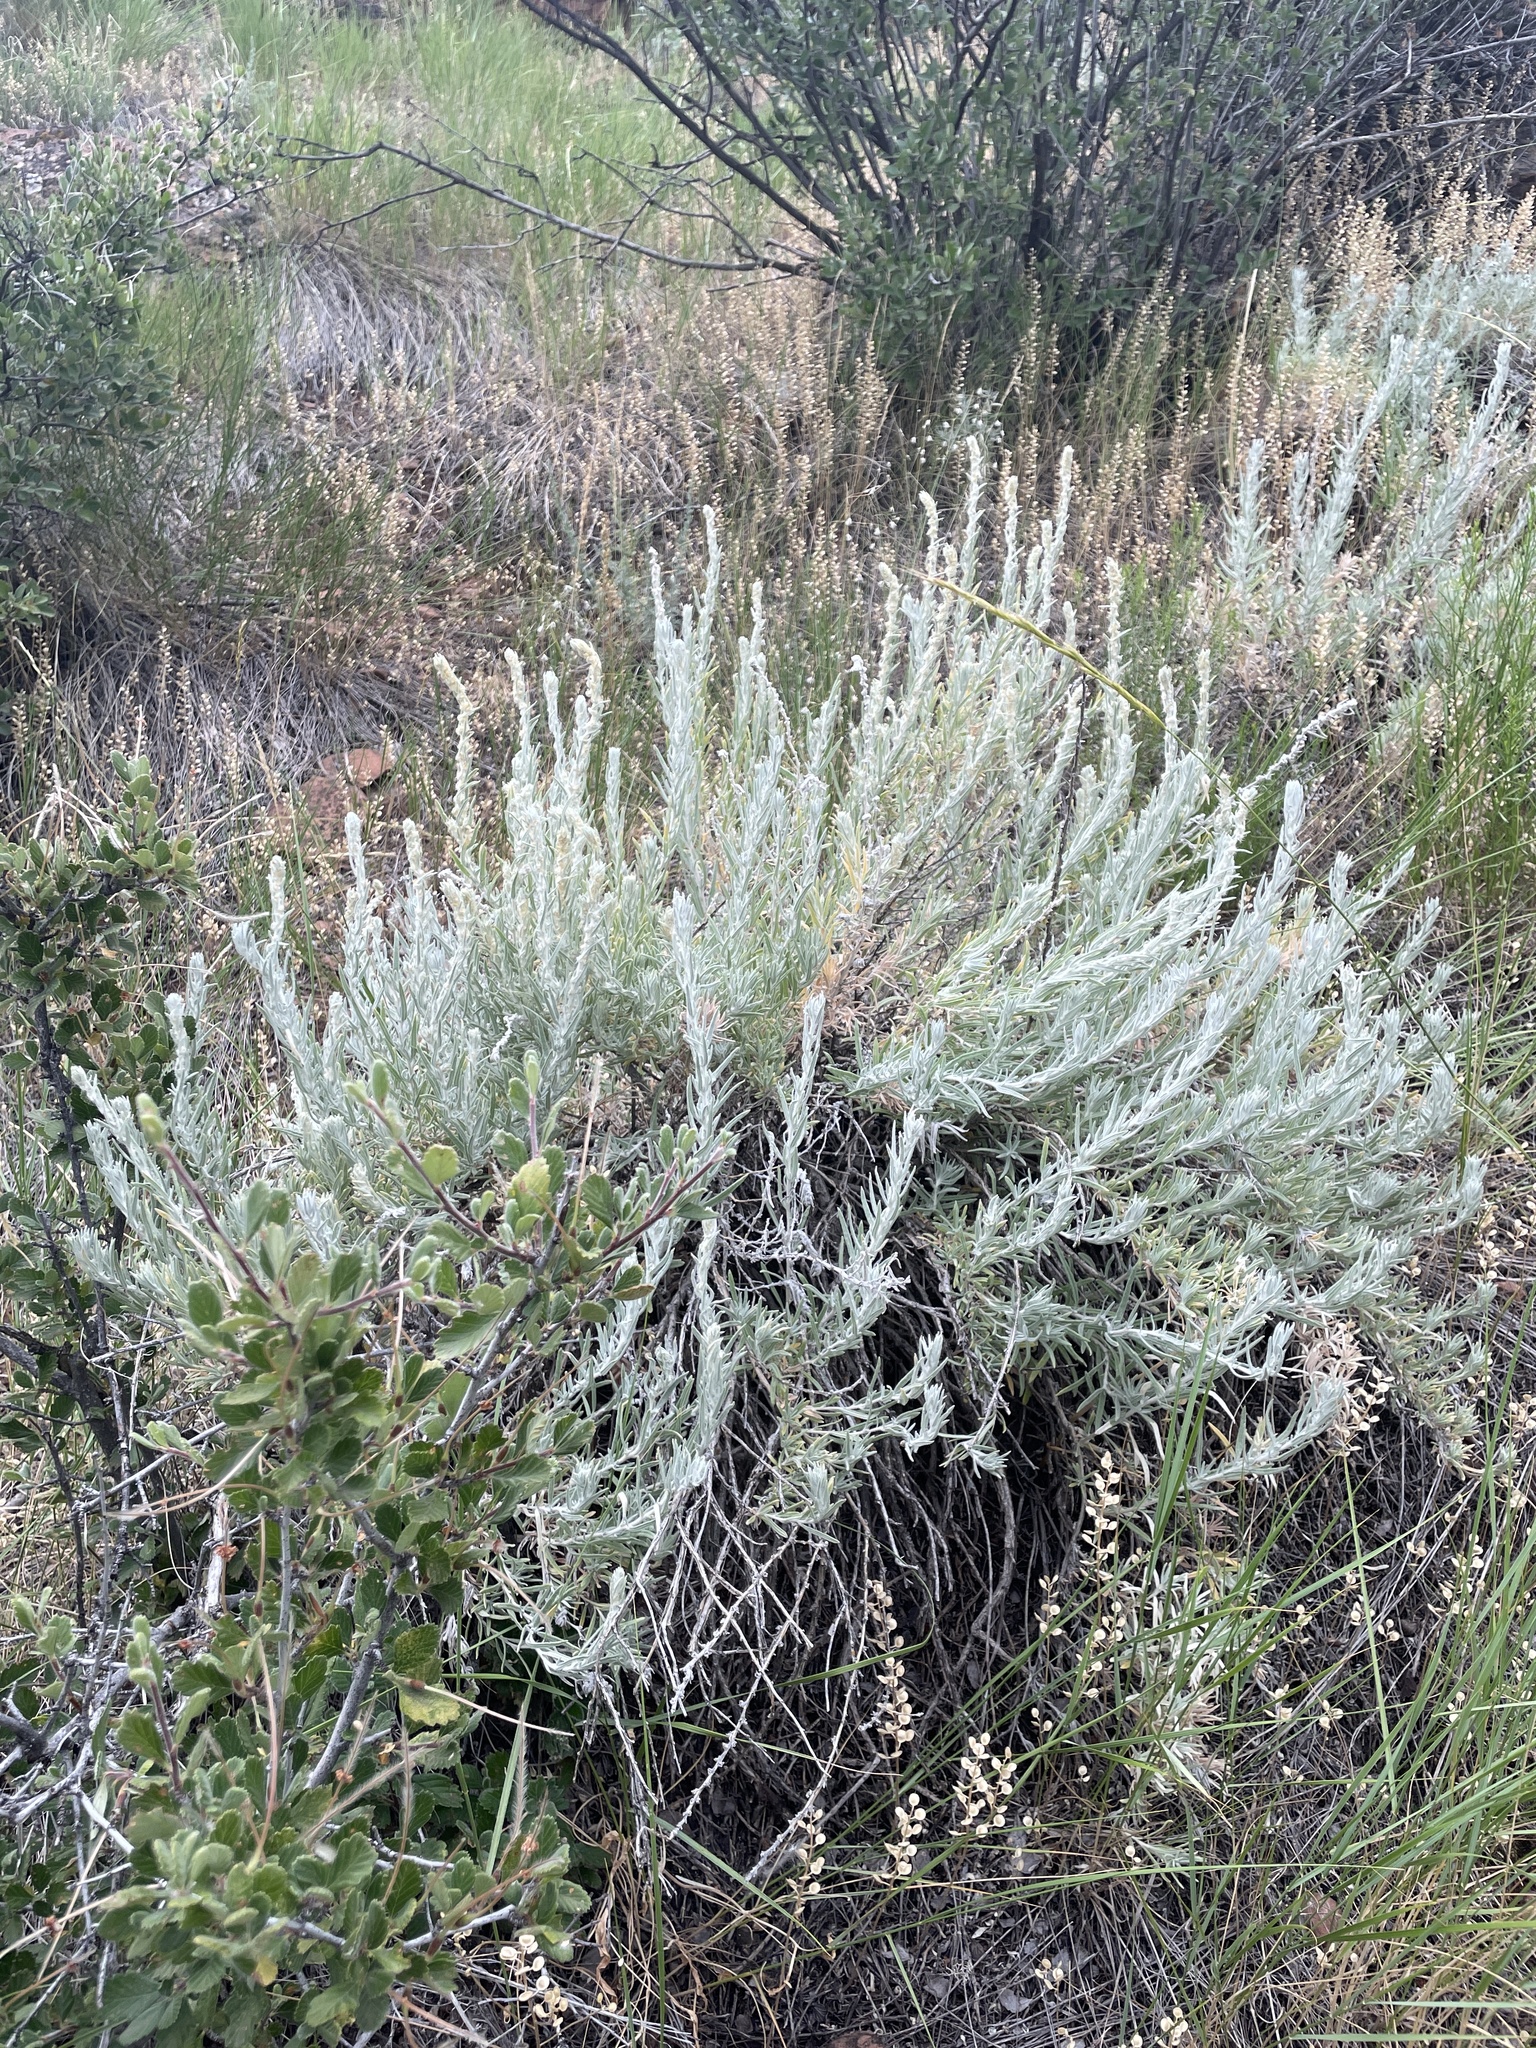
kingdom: Plantae
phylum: Tracheophyta
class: Magnoliopsida
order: Caryophyllales
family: Amaranthaceae
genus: Krascheninnikovia
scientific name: Krascheninnikovia lanata
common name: Winterfat
